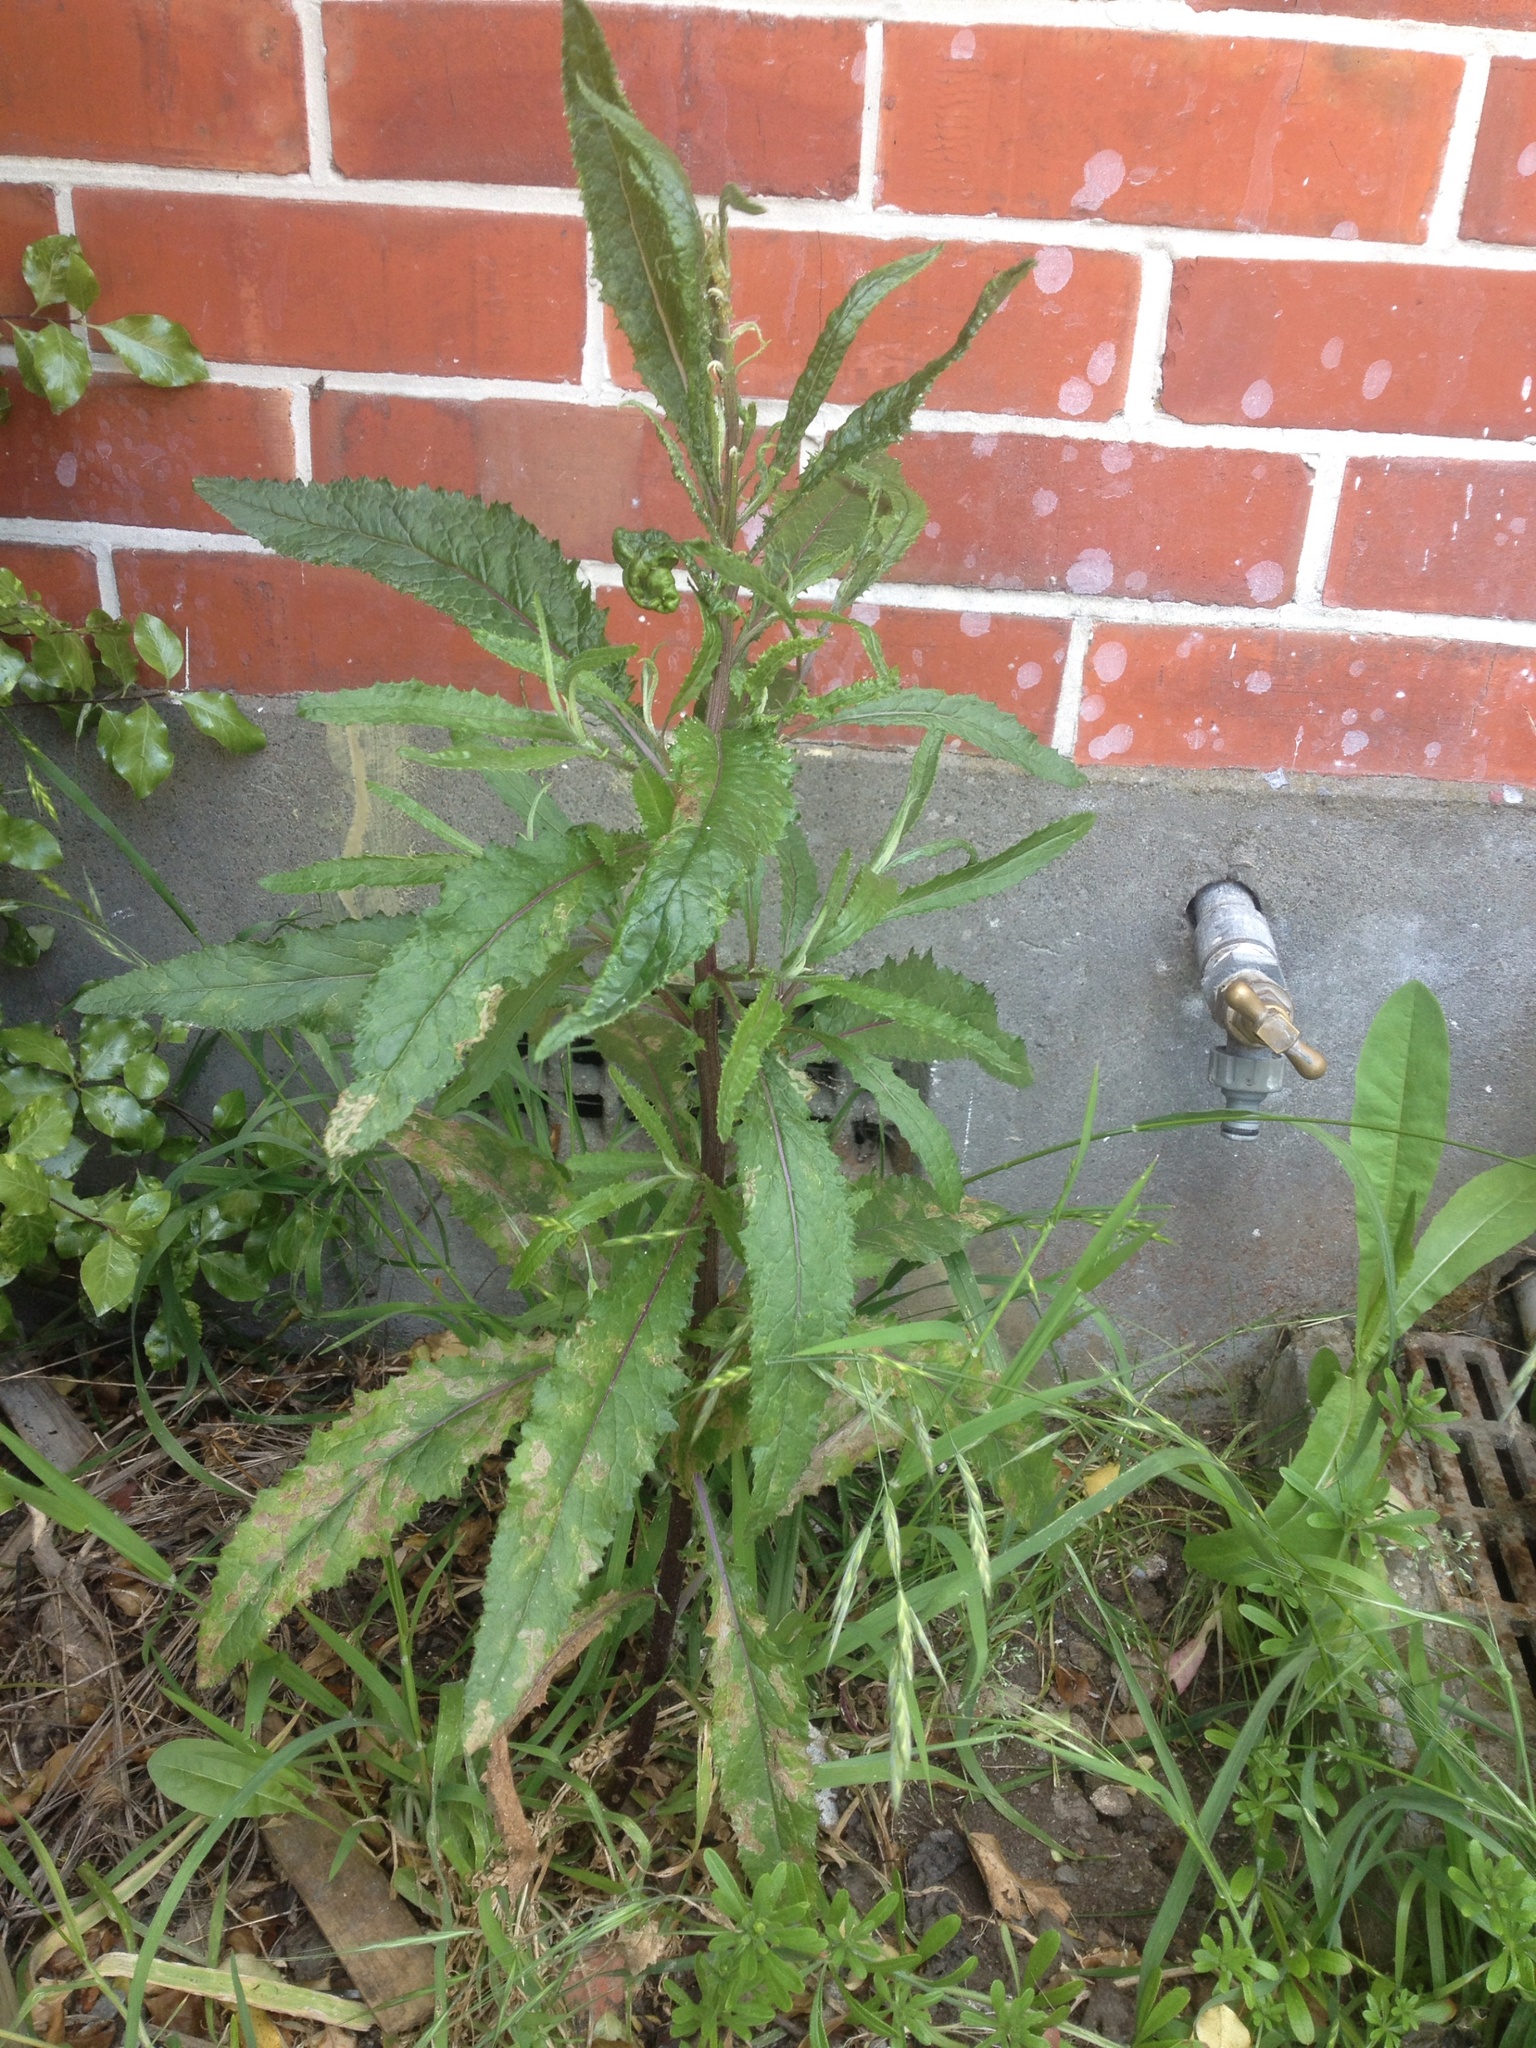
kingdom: Plantae
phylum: Tracheophyta
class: Magnoliopsida
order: Asterales
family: Asteraceae
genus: Senecio
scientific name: Senecio minimus
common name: Toothed fireweed
